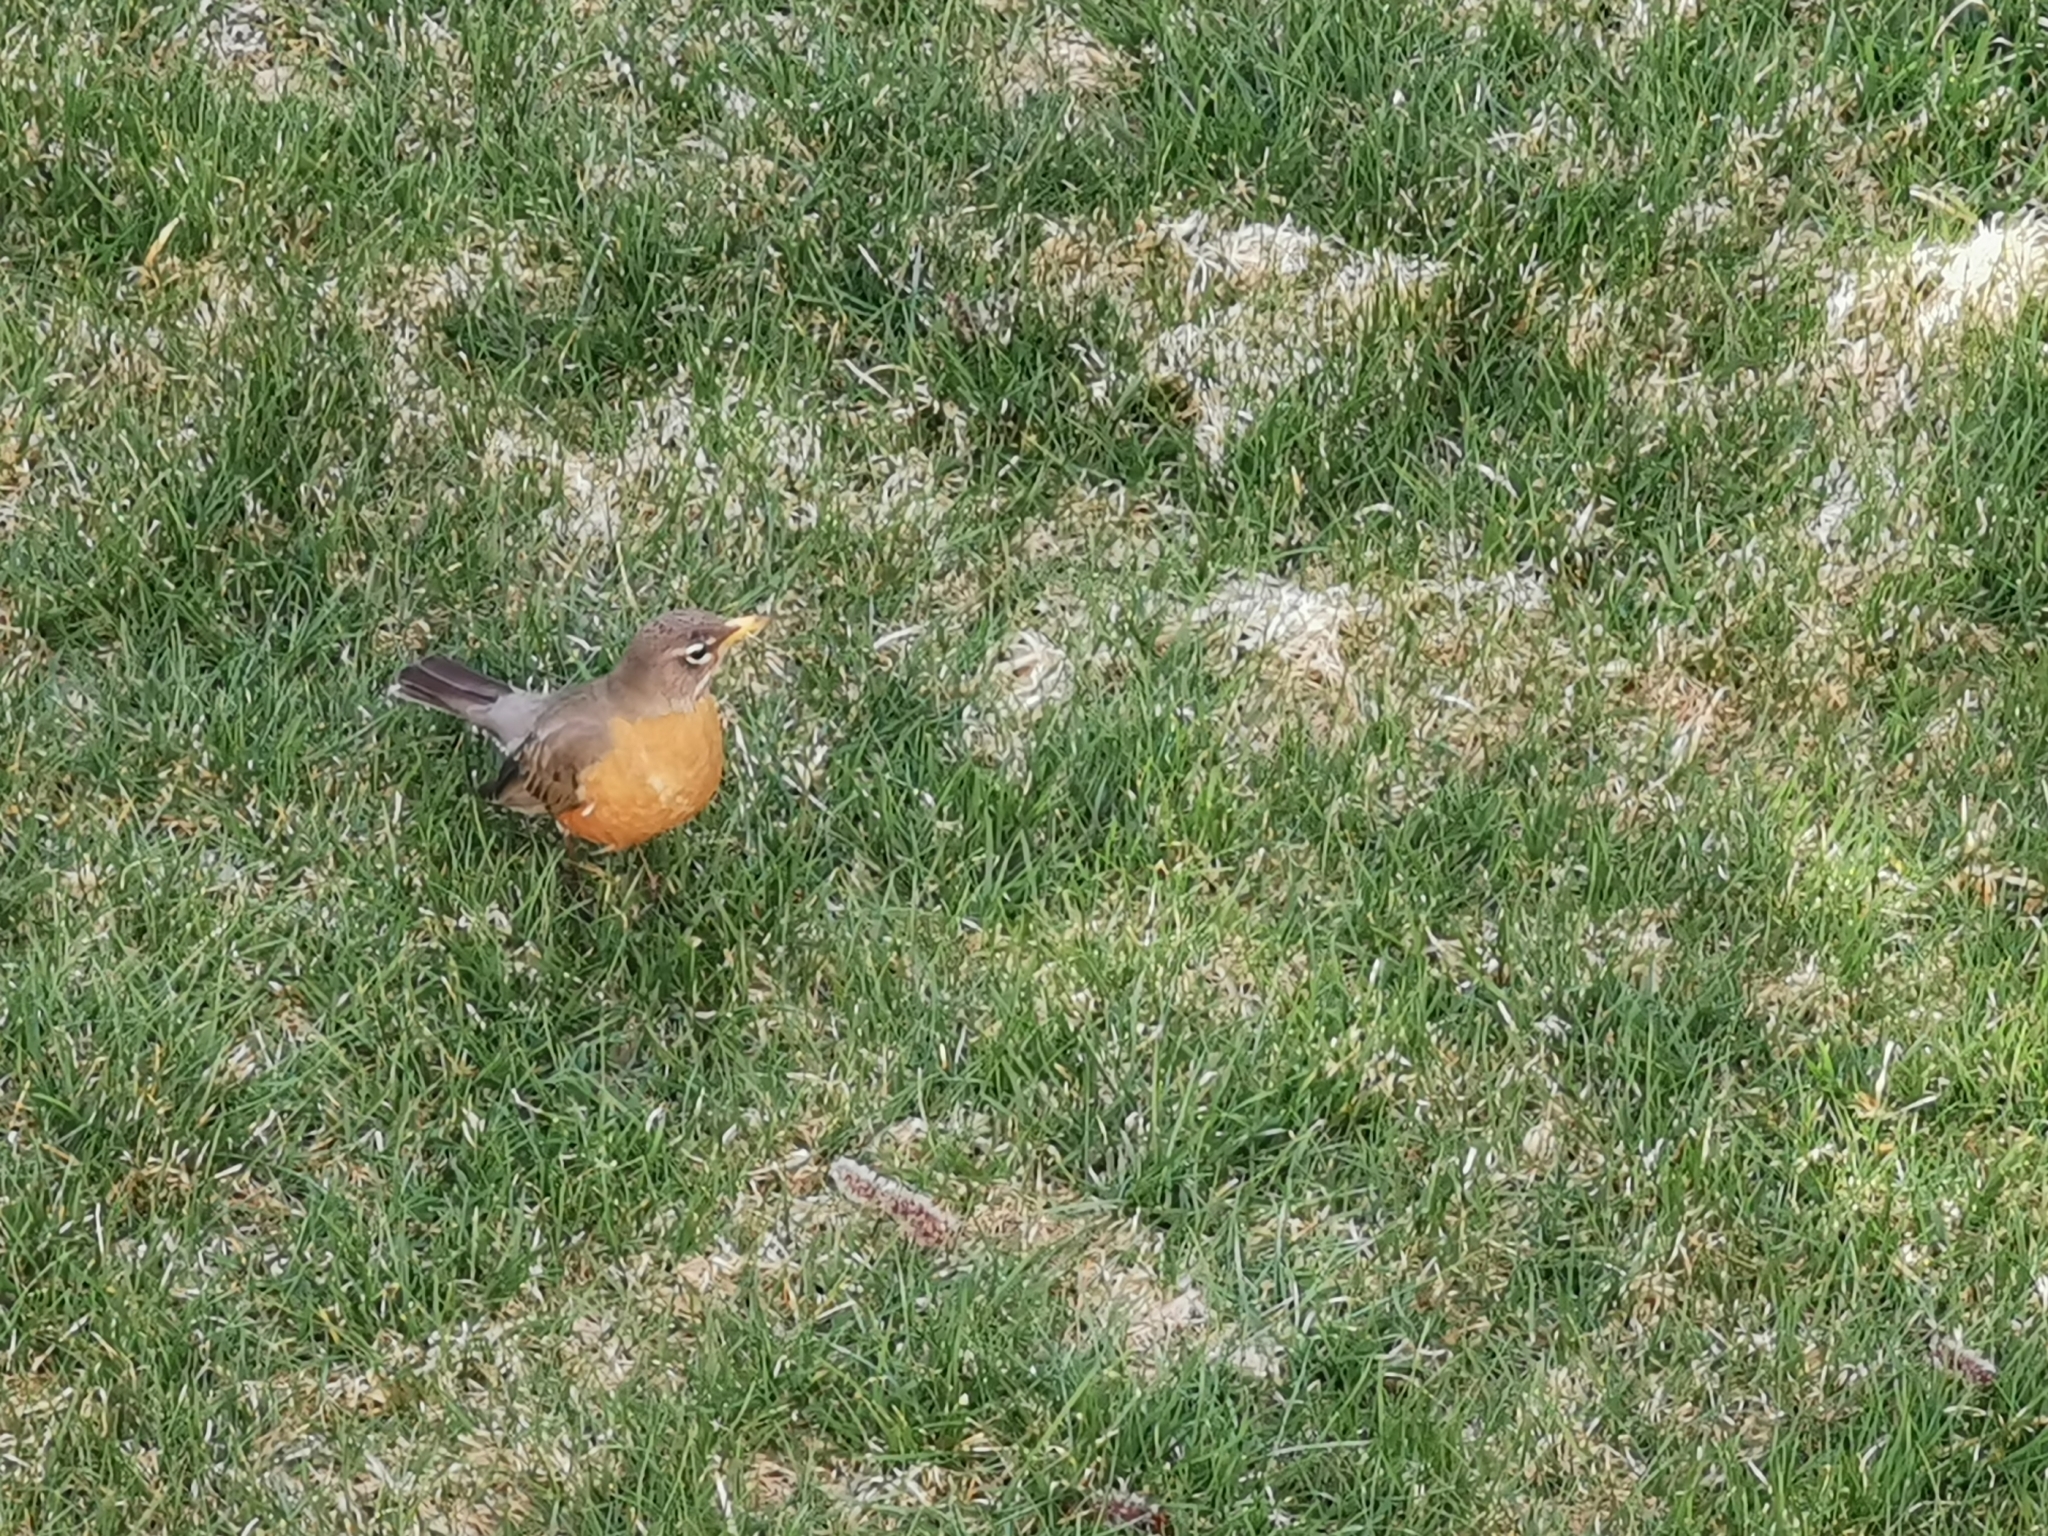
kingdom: Animalia
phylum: Chordata
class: Aves
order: Passeriformes
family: Turdidae
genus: Turdus
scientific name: Turdus migratorius
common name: American robin
